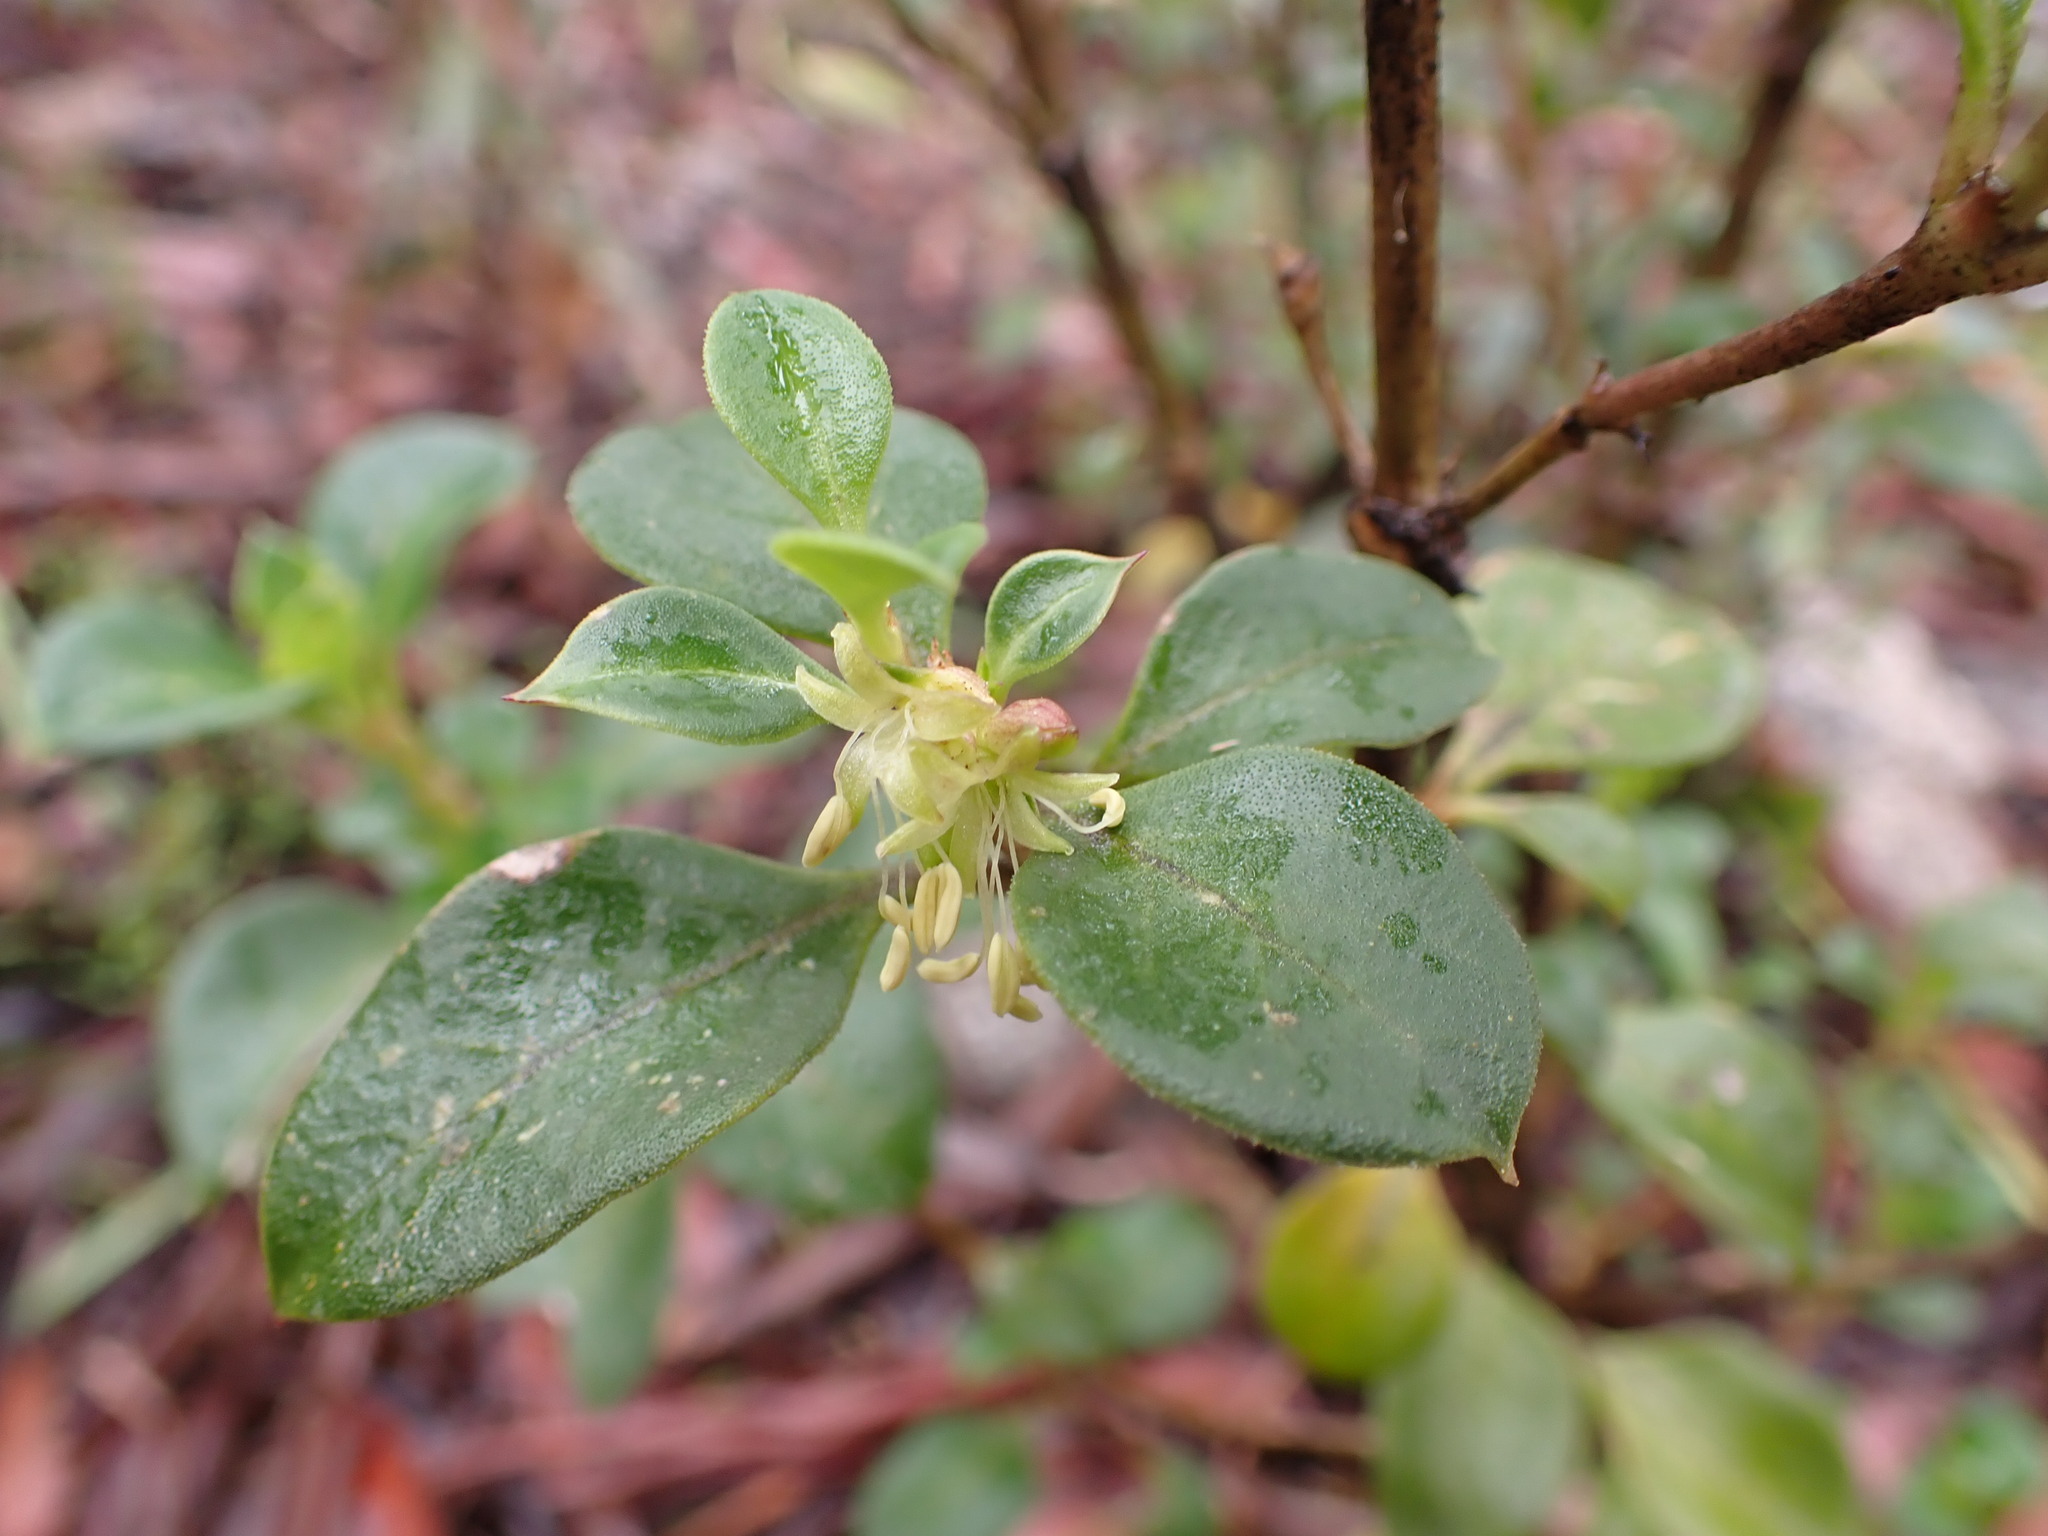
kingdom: Plantae
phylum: Tracheophyta
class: Magnoliopsida
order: Gentianales
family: Rubiaceae
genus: Coprosma
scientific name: Coprosma hirtella
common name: Rough coprosma
